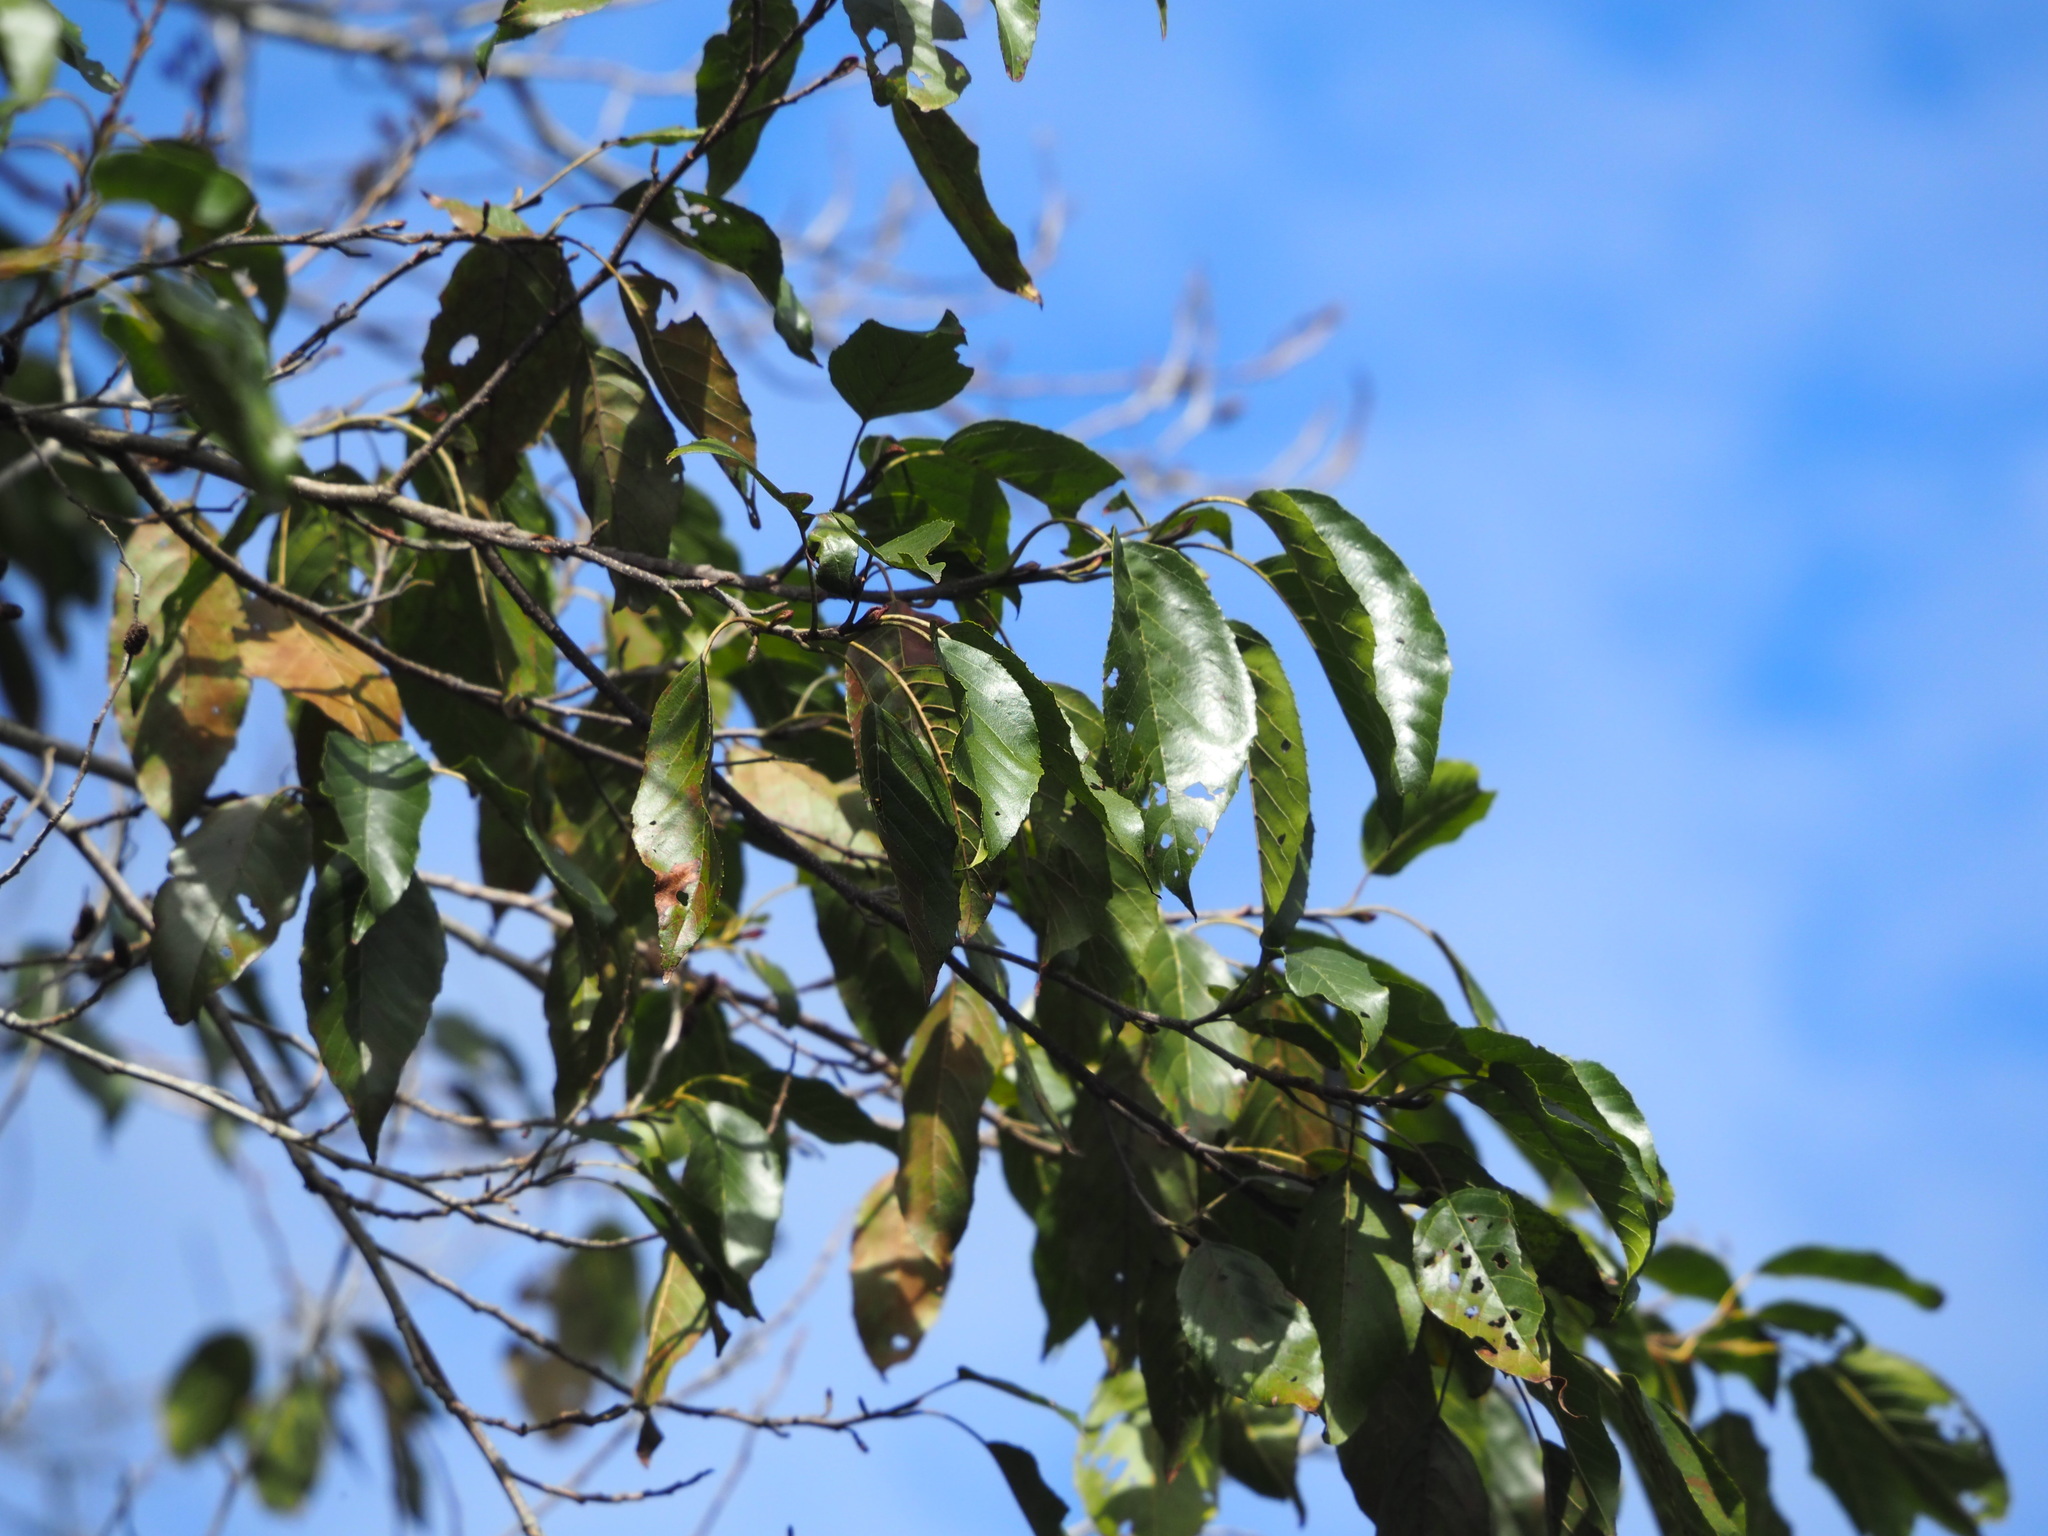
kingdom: Plantae
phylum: Tracheophyta
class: Magnoliopsida
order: Fagales
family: Betulaceae
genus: Alnus
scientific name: Alnus formosana
